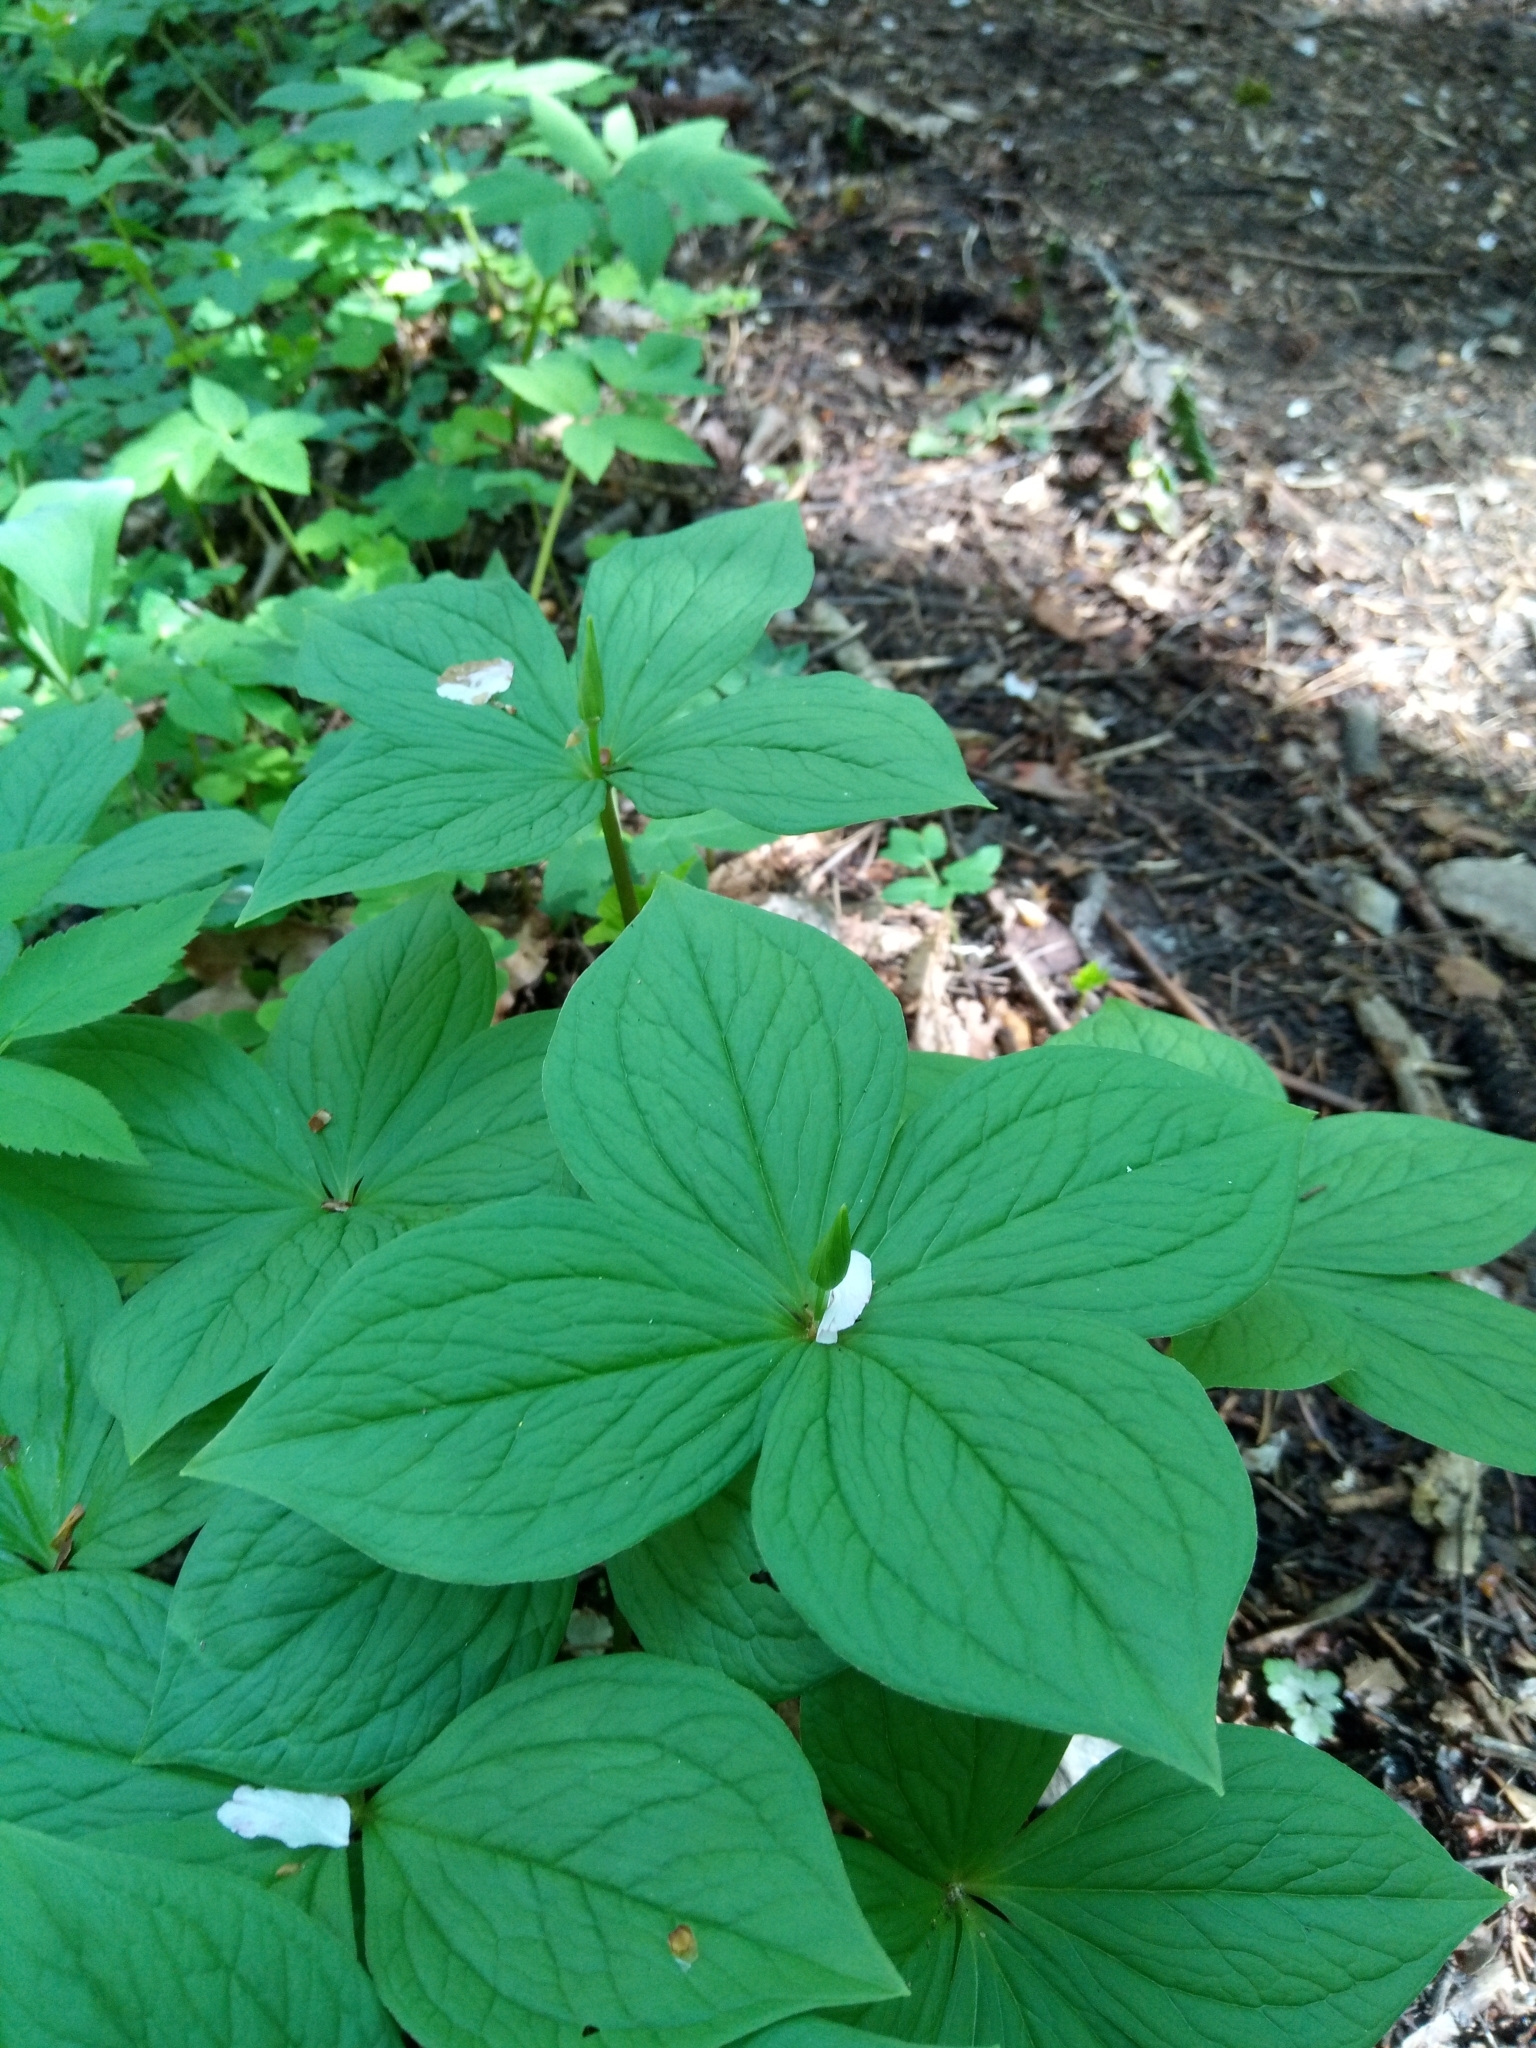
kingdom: Plantae
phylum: Tracheophyta
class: Liliopsida
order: Liliales
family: Melanthiaceae
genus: Paris
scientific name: Paris quadrifolia
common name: Herb-paris
